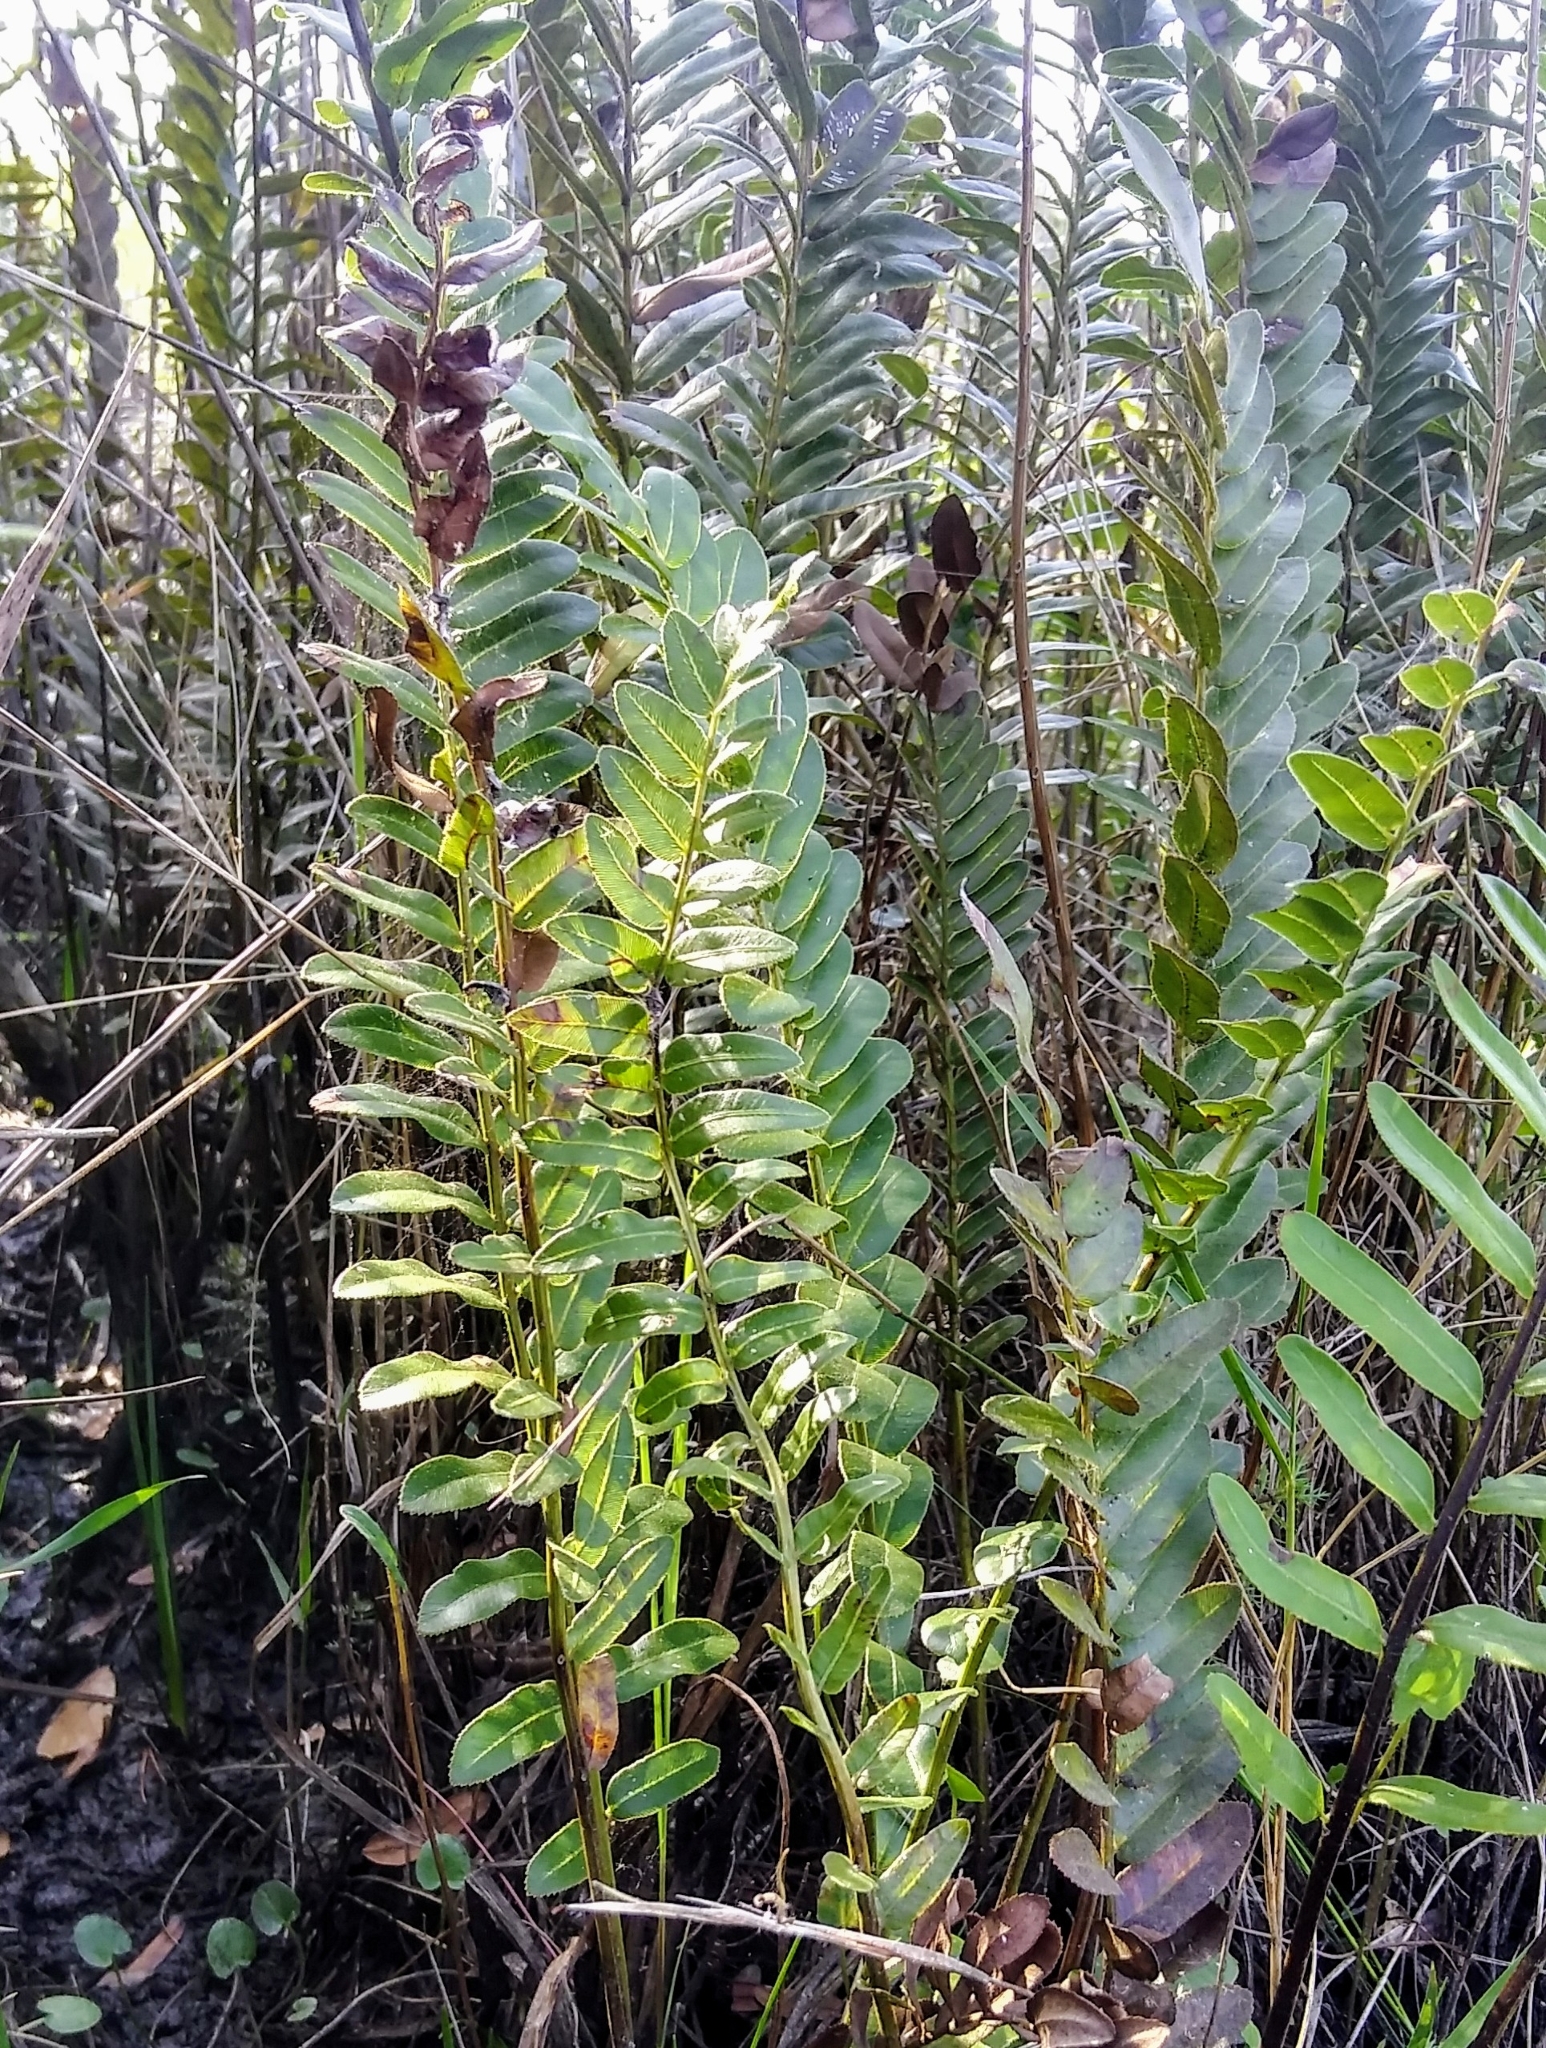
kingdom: Plantae
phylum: Tracheophyta
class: Polypodiopsida
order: Polypodiales
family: Blechnaceae
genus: Telmatoblechnum
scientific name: Telmatoblechnum serrulatum
